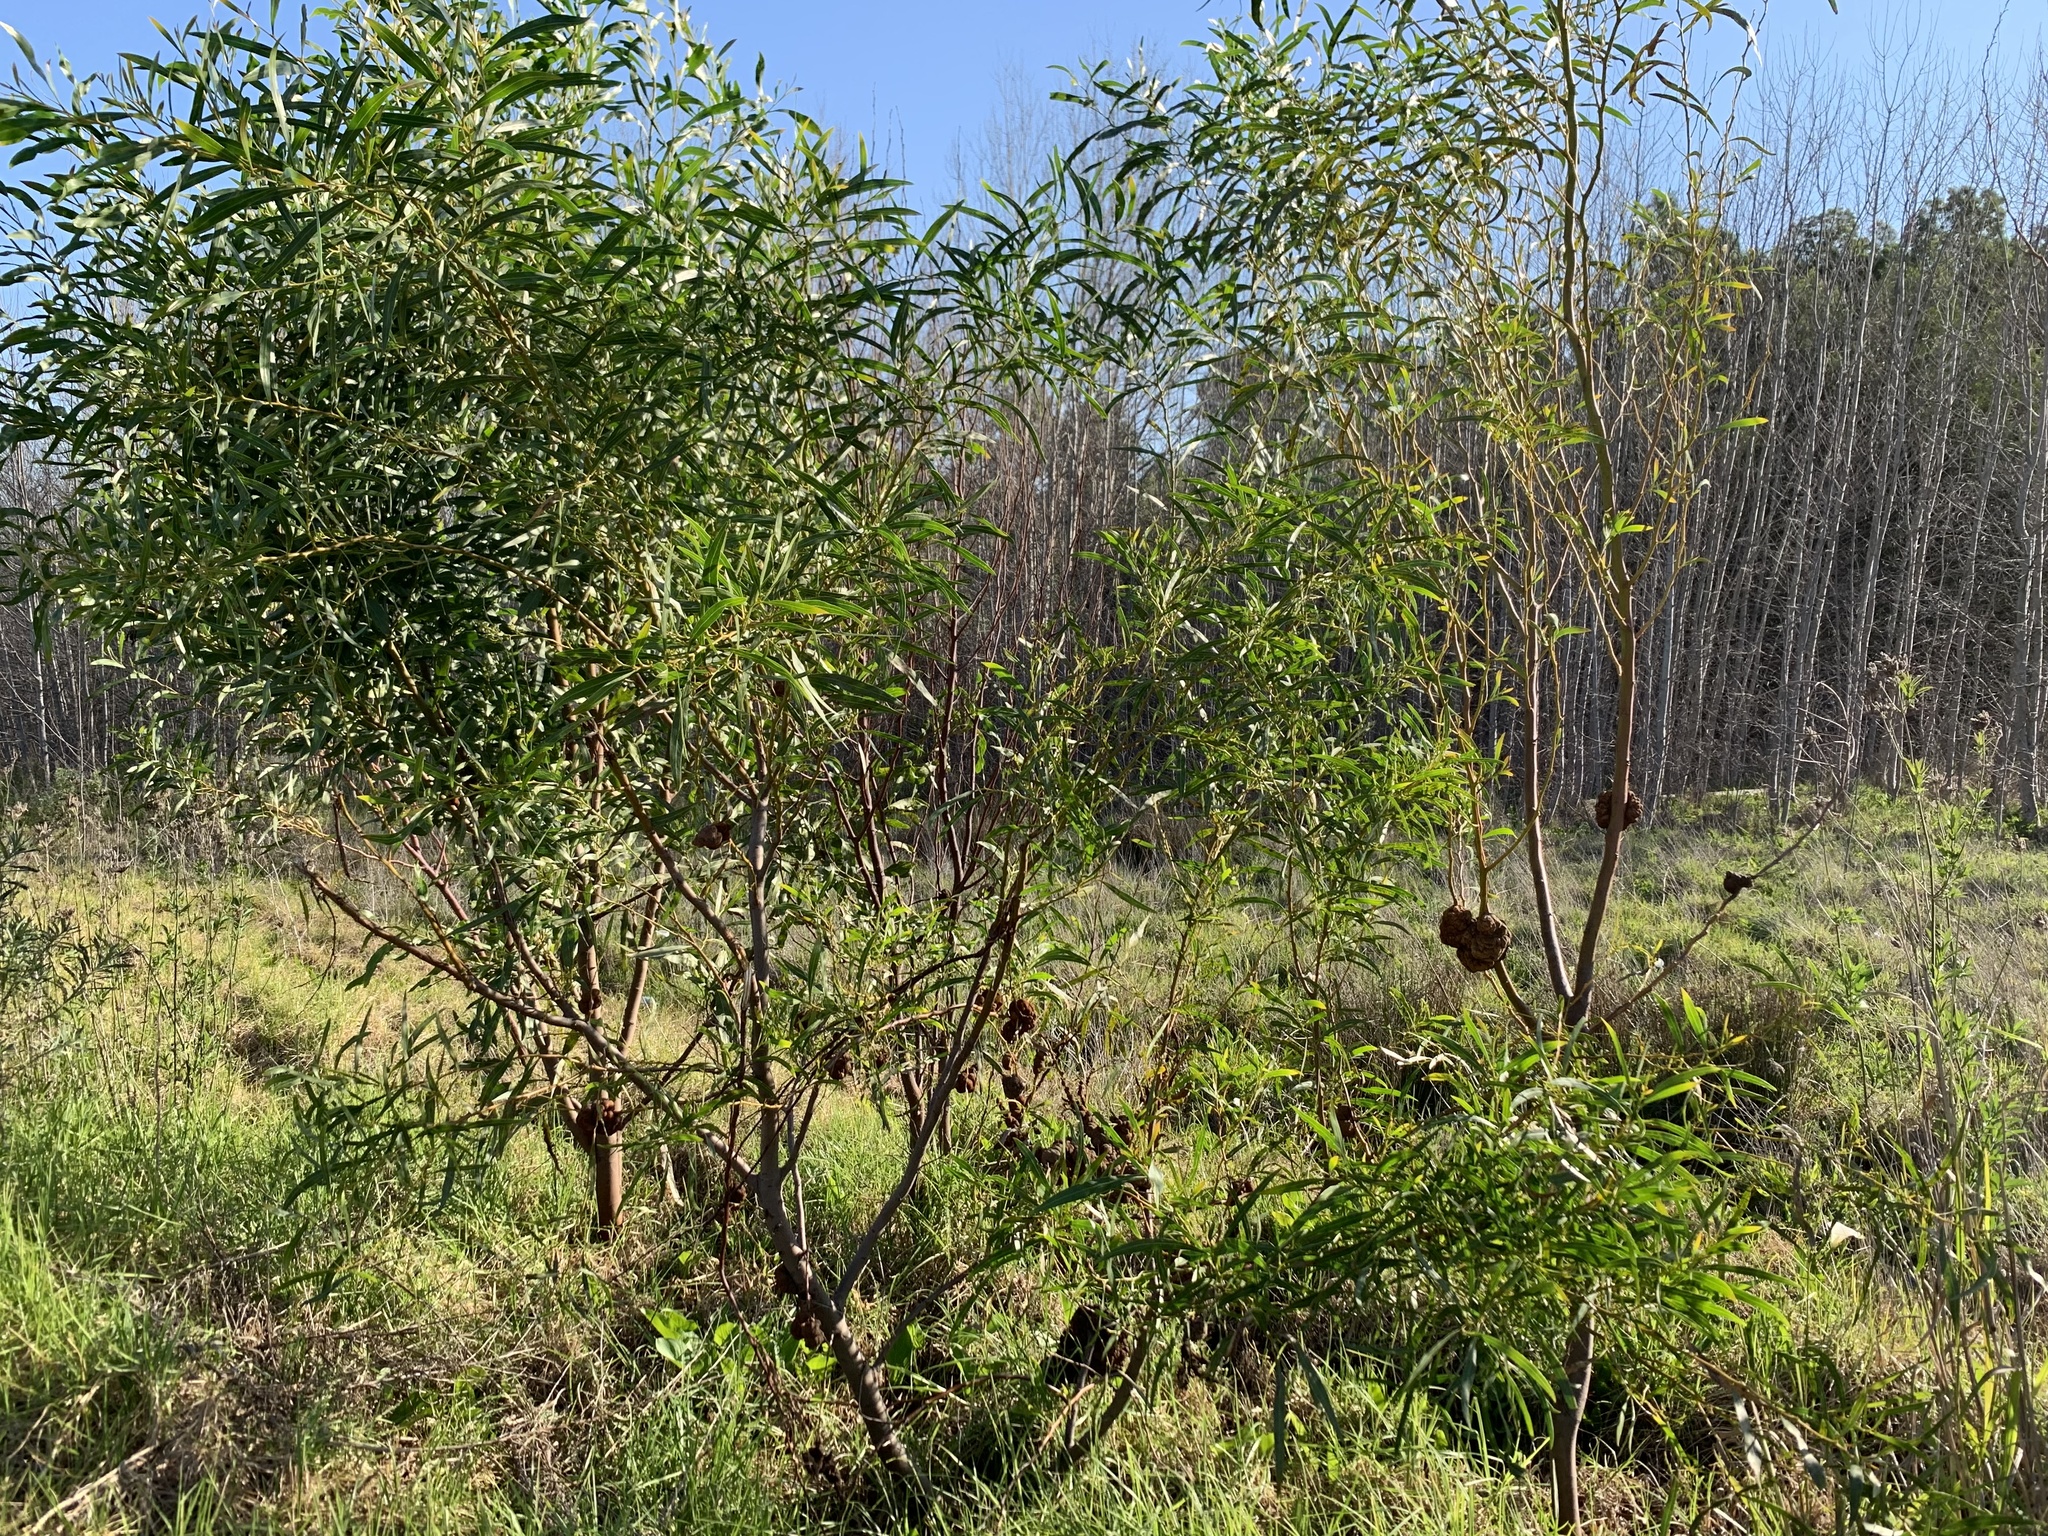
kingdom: Plantae
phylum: Tracheophyta
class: Magnoliopsida
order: Fabales
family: Fabaceae
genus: Acacia
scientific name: Acacia saligna
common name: Orange wattle
